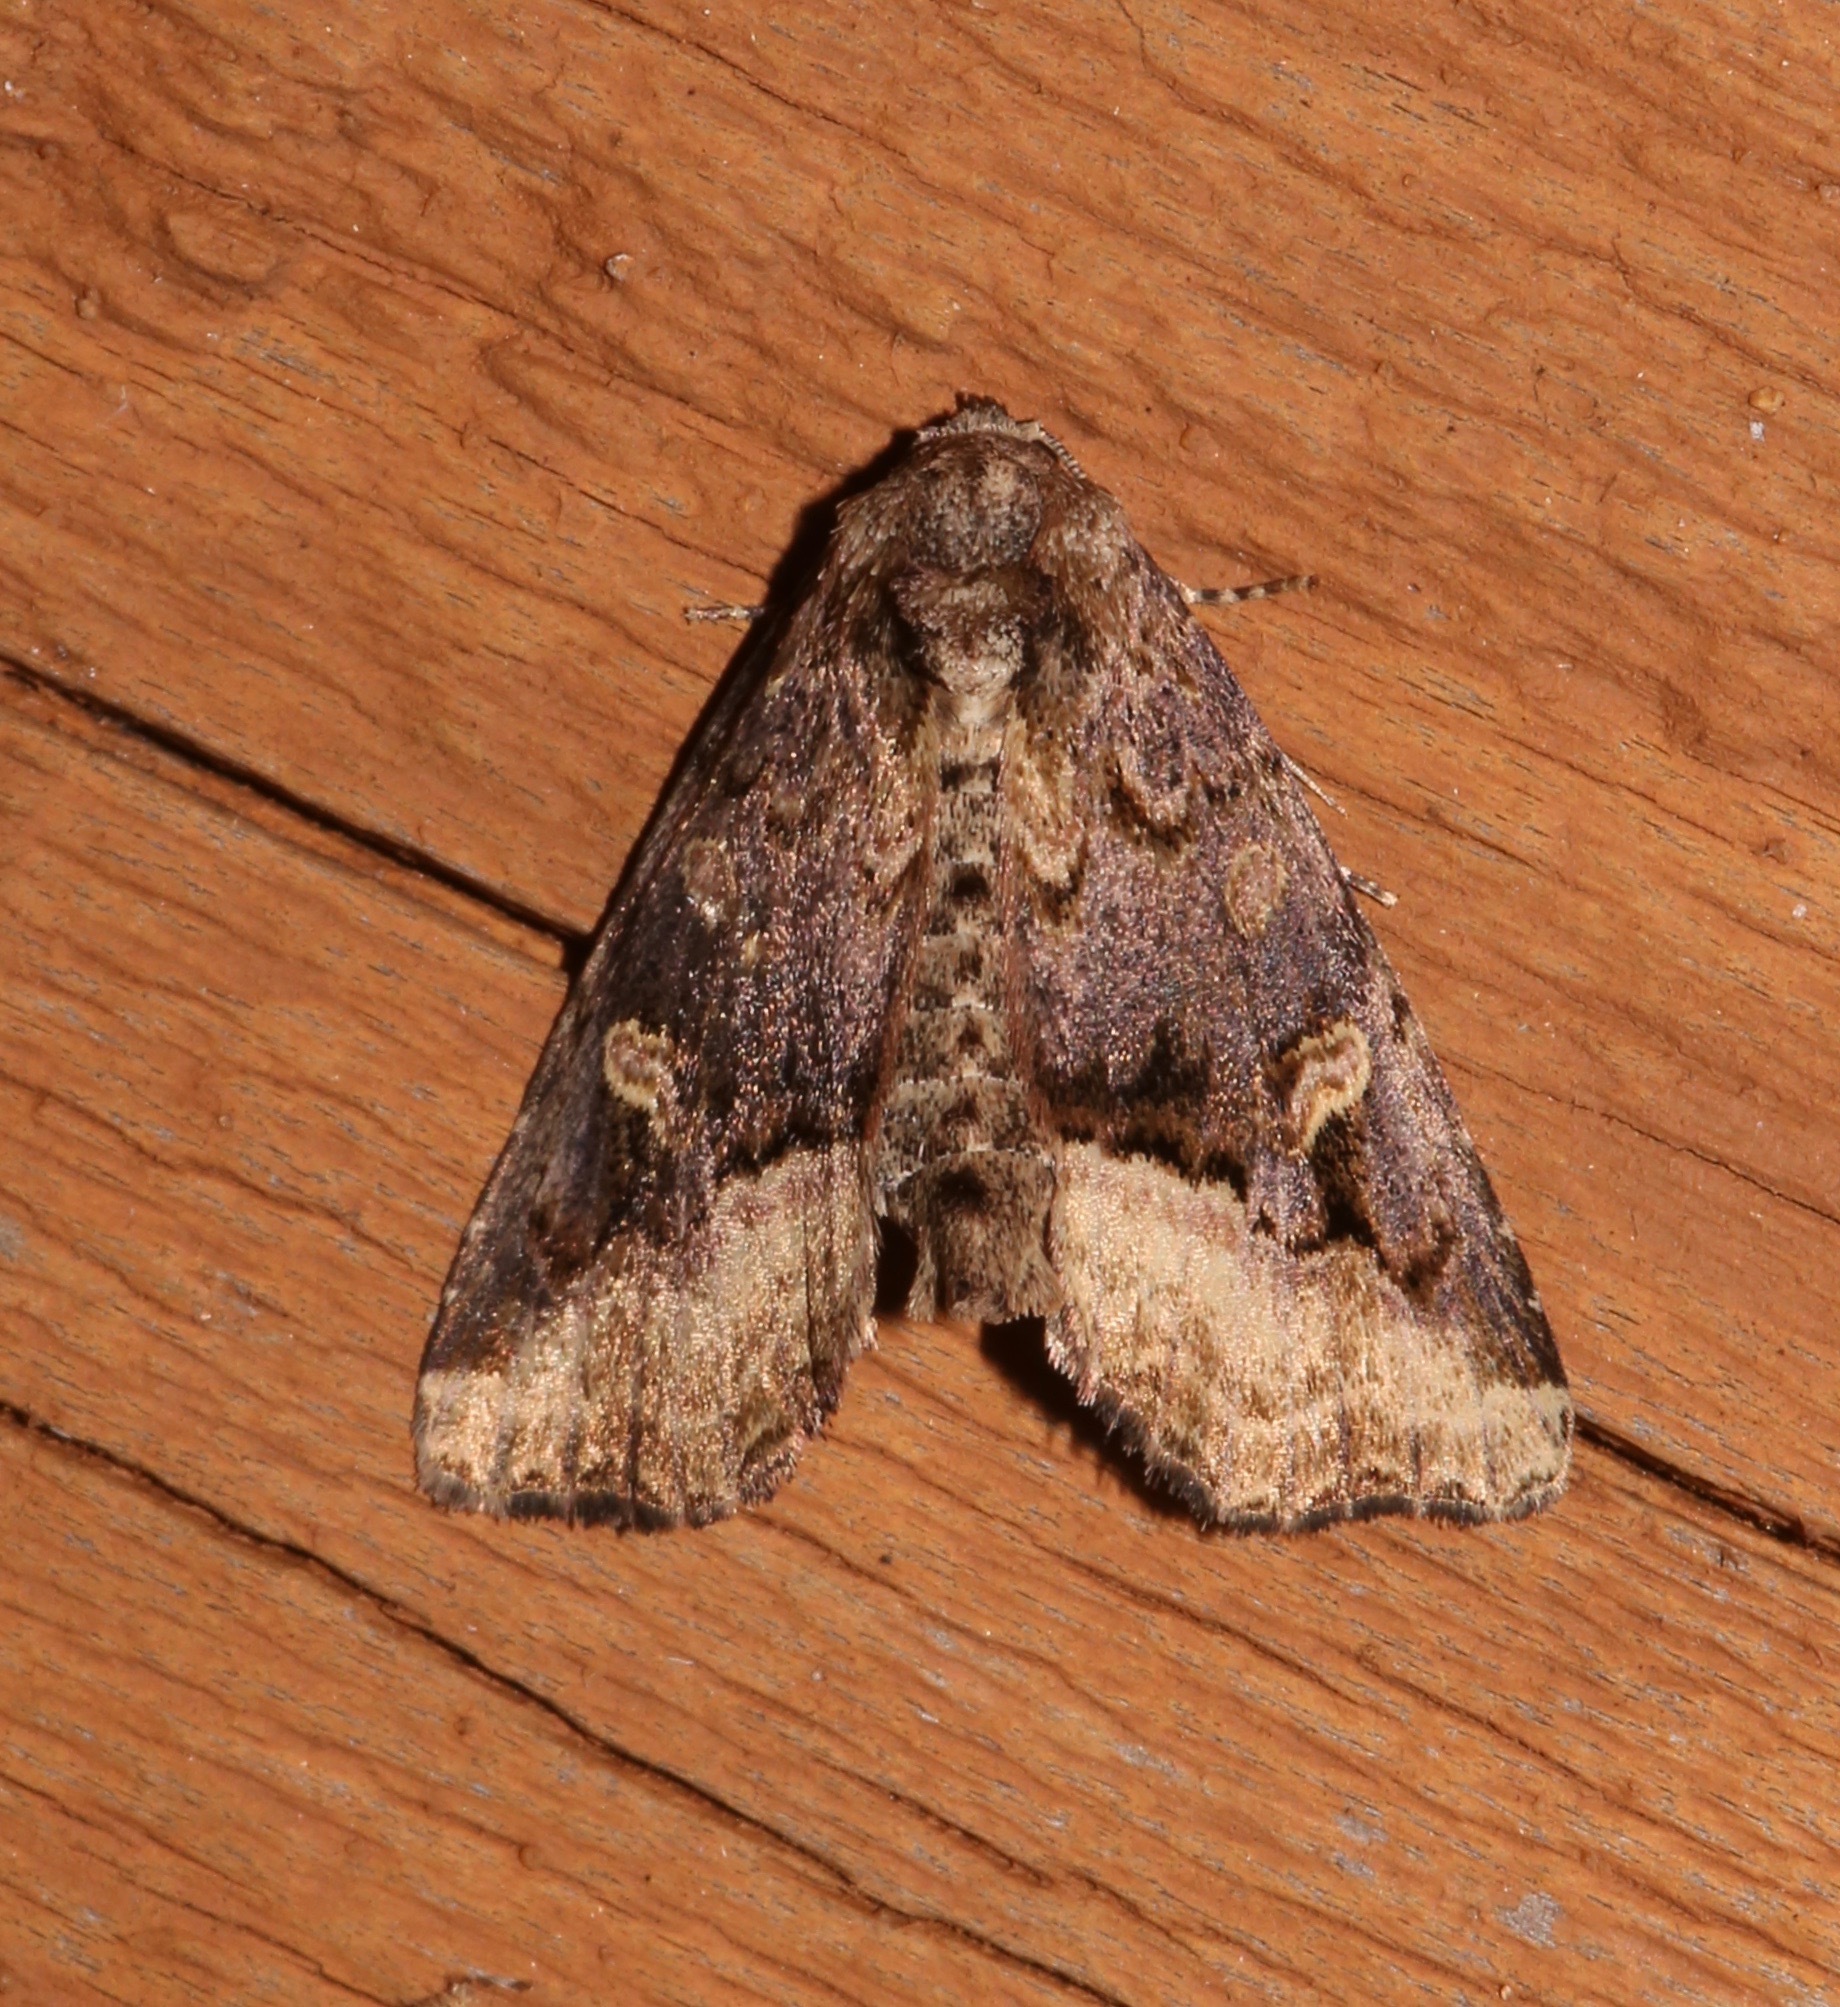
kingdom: Animalia
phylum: Arthropoda
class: Insecta
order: Lepidoptera
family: Noctuidae
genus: Homophoberia
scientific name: Homophoberia australis
